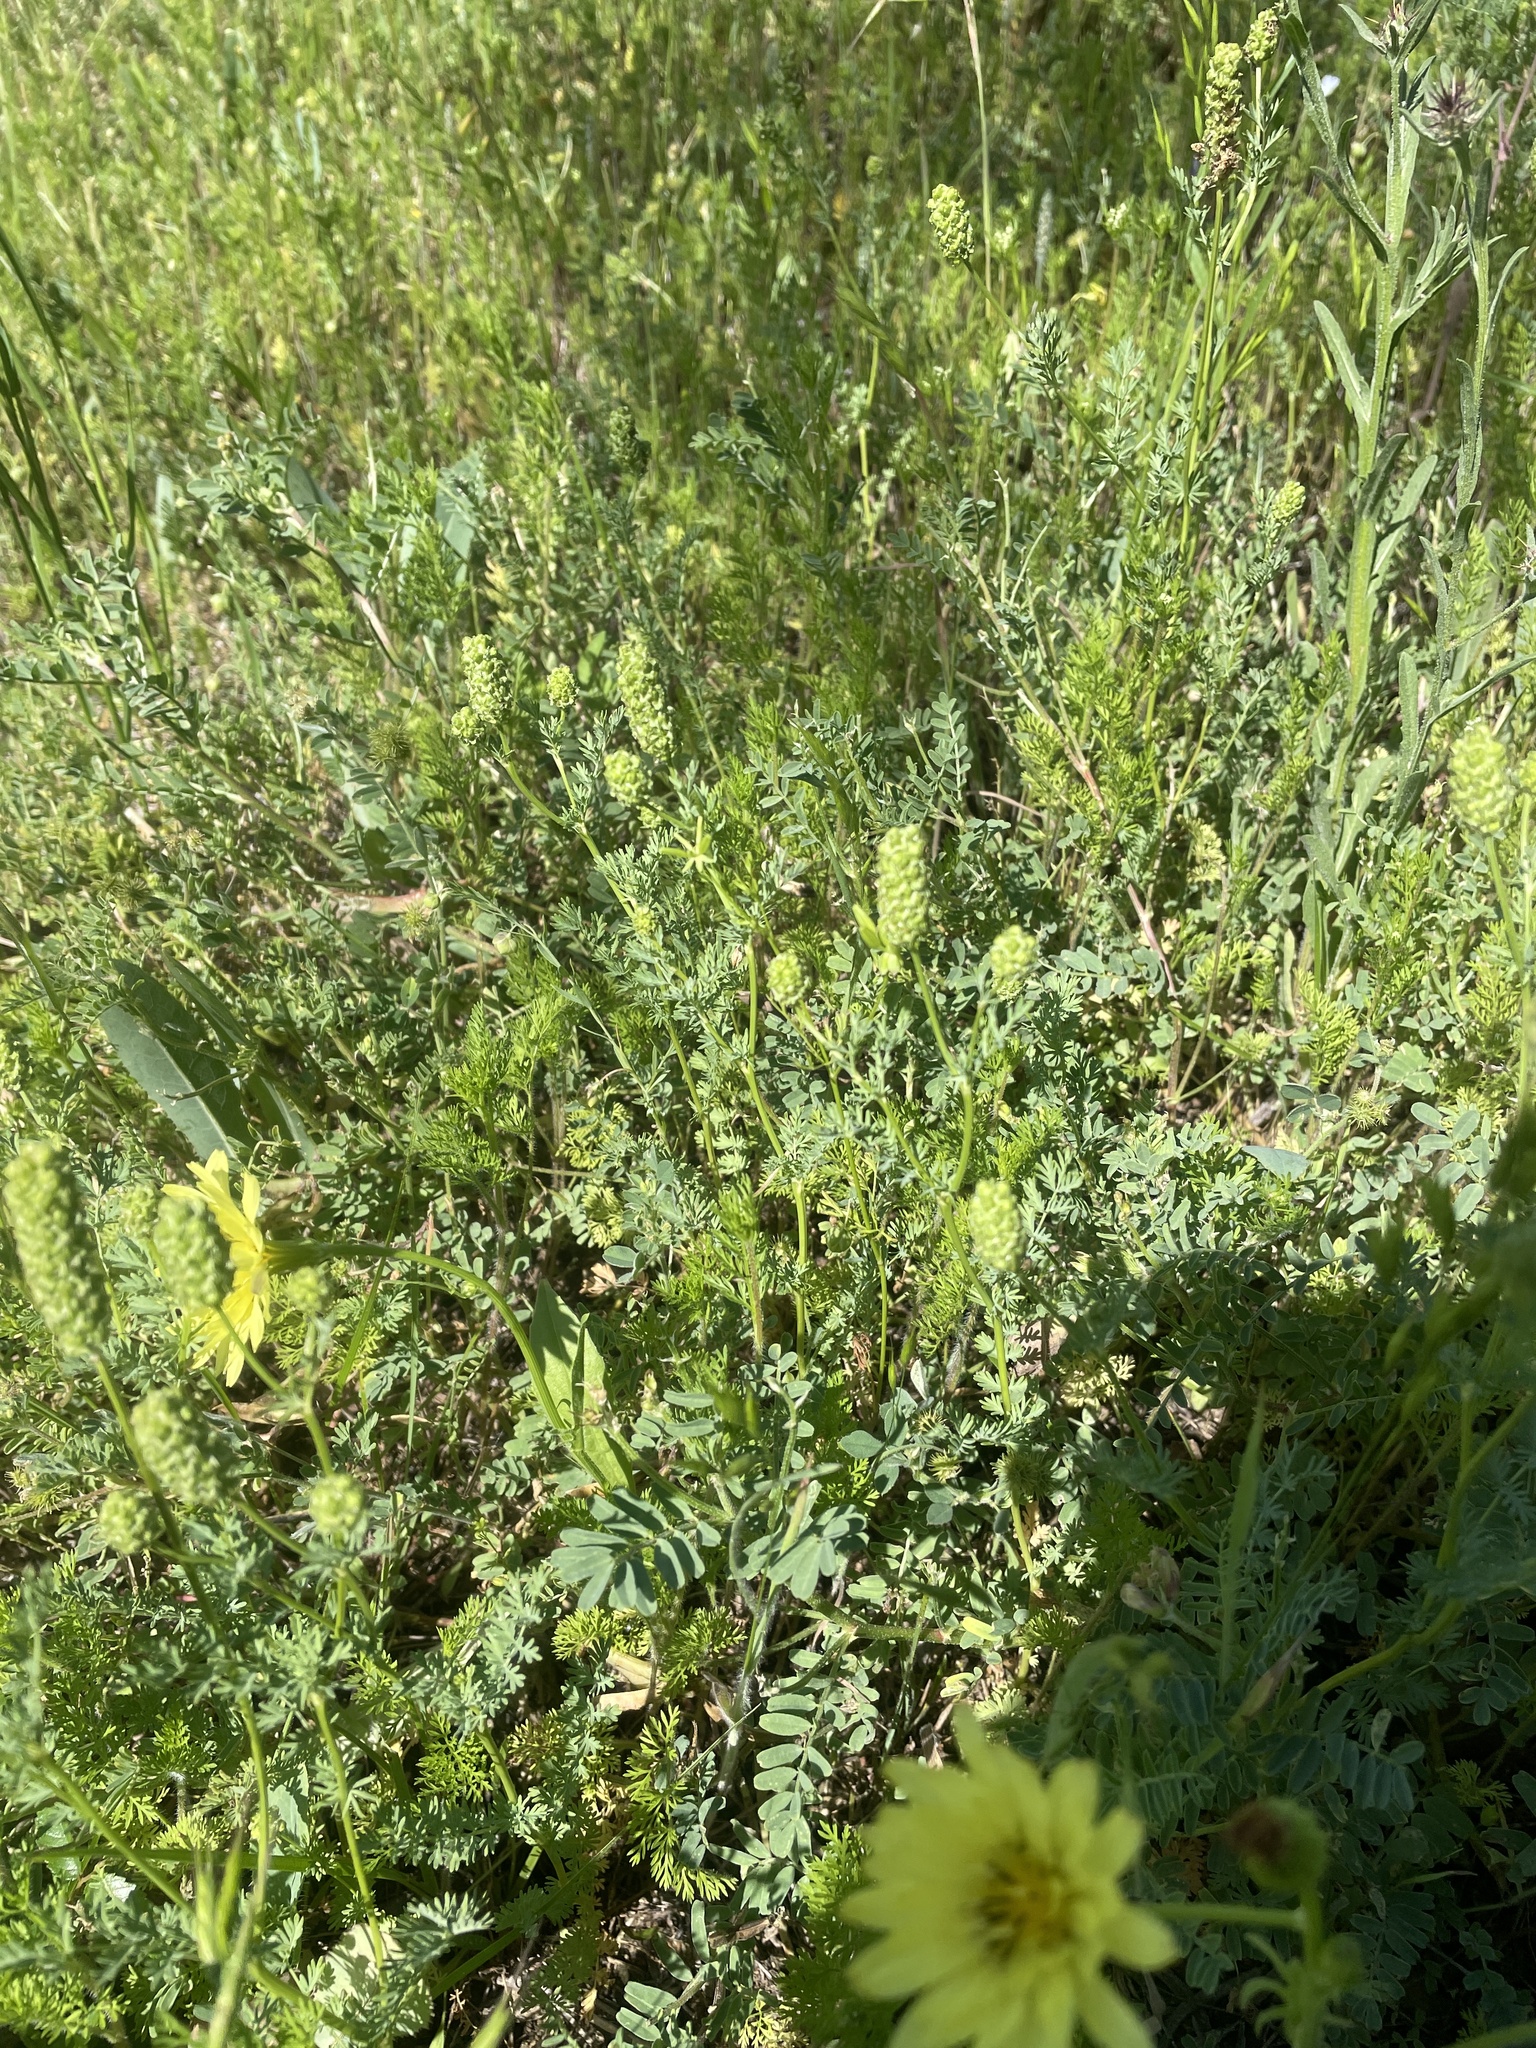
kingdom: Plantae
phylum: Tracheophyta
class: Magnoliopsida
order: Rosales
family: Rosaceae
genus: Poteridium
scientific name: Poteridium annuum
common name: Annual burnet
